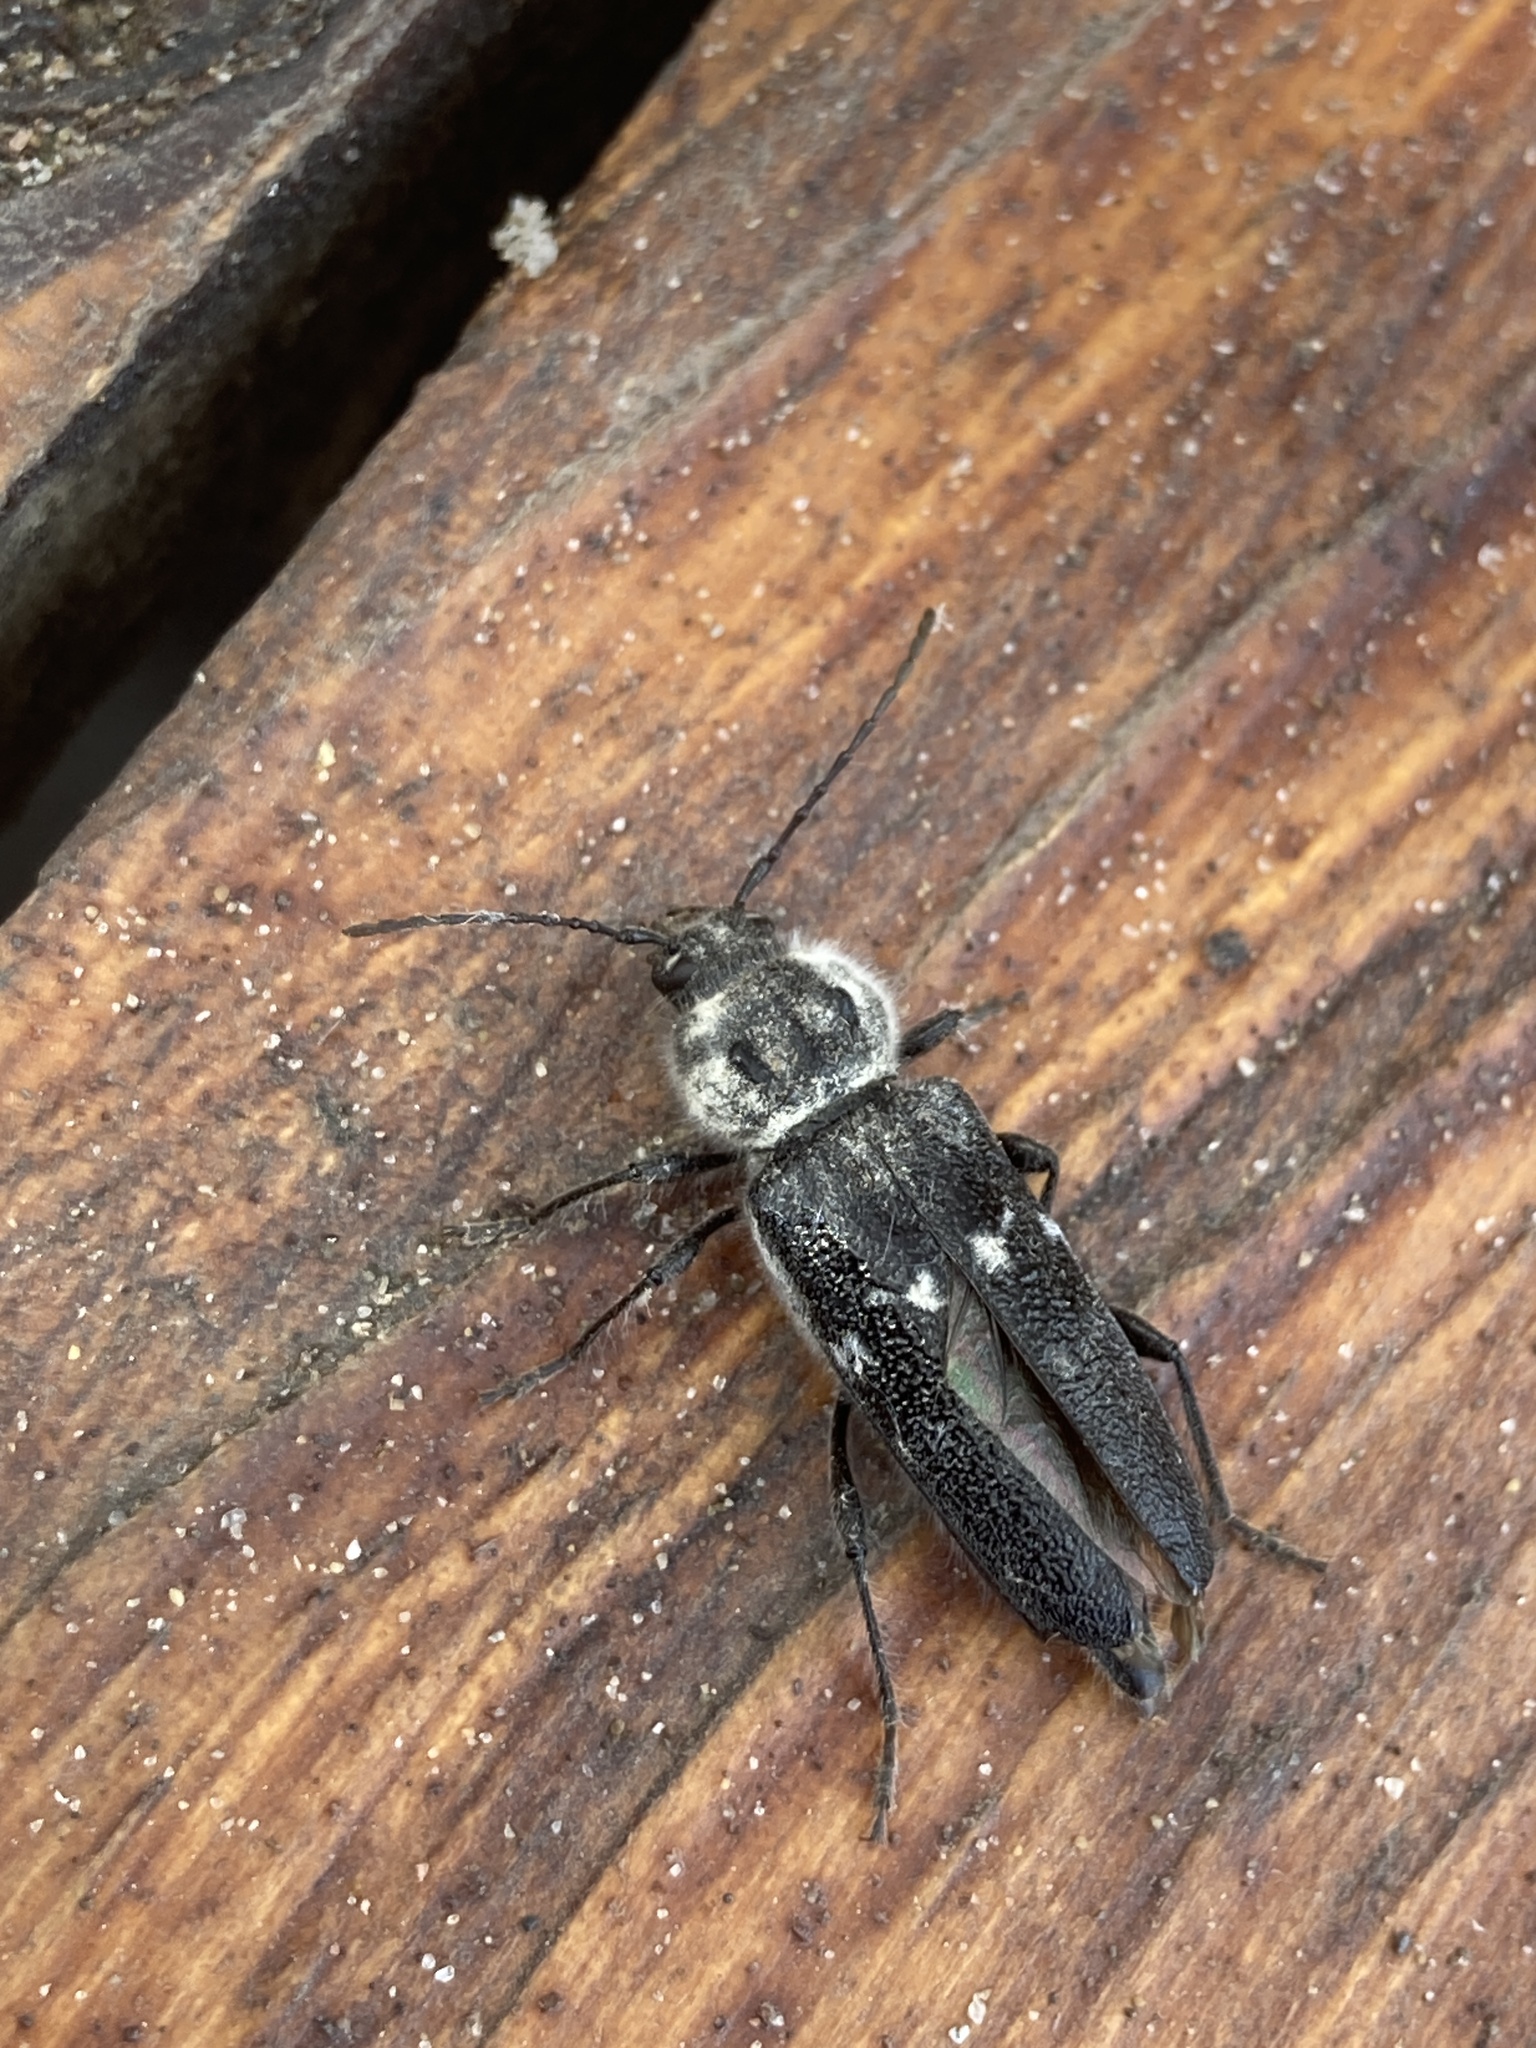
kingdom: Animalia
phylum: Arthropoda
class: Insecta
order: Coleoptera
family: Cerambycidae
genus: Hylotrupes
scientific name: Hylotrupes bajulus
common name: Old house borer
